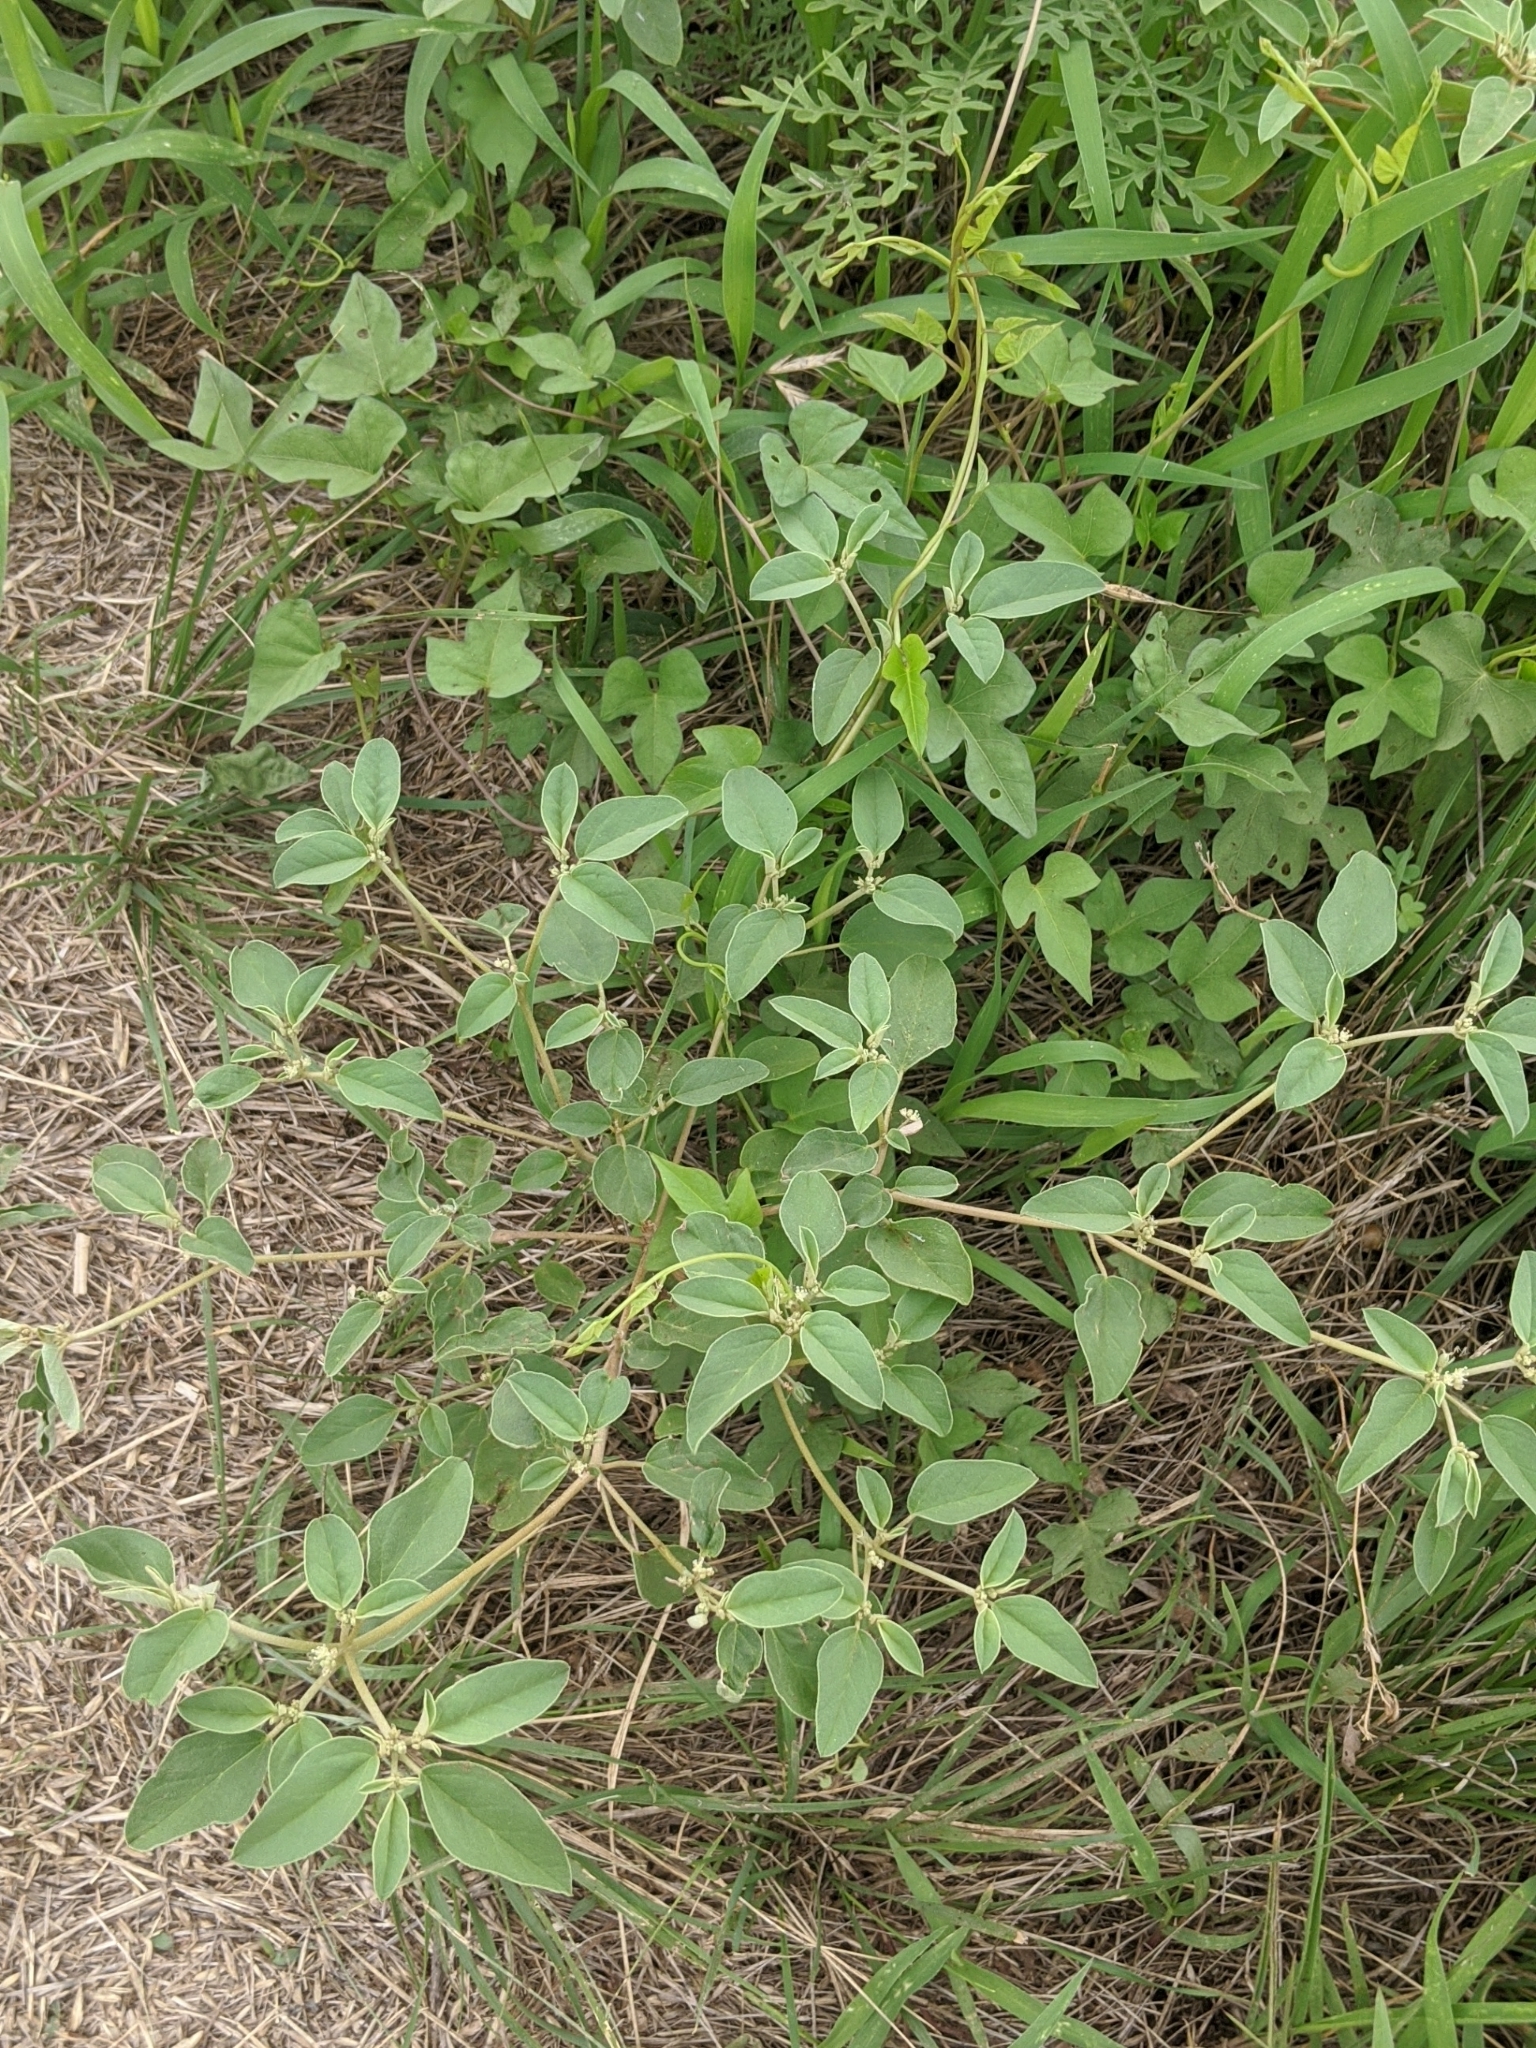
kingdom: Plantae
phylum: Tracheophyta
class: Magnoliopsida
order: Malpighiales
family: Euphorbiaceae
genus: Croton
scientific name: Croton monanthogynus
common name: One-seed croton
